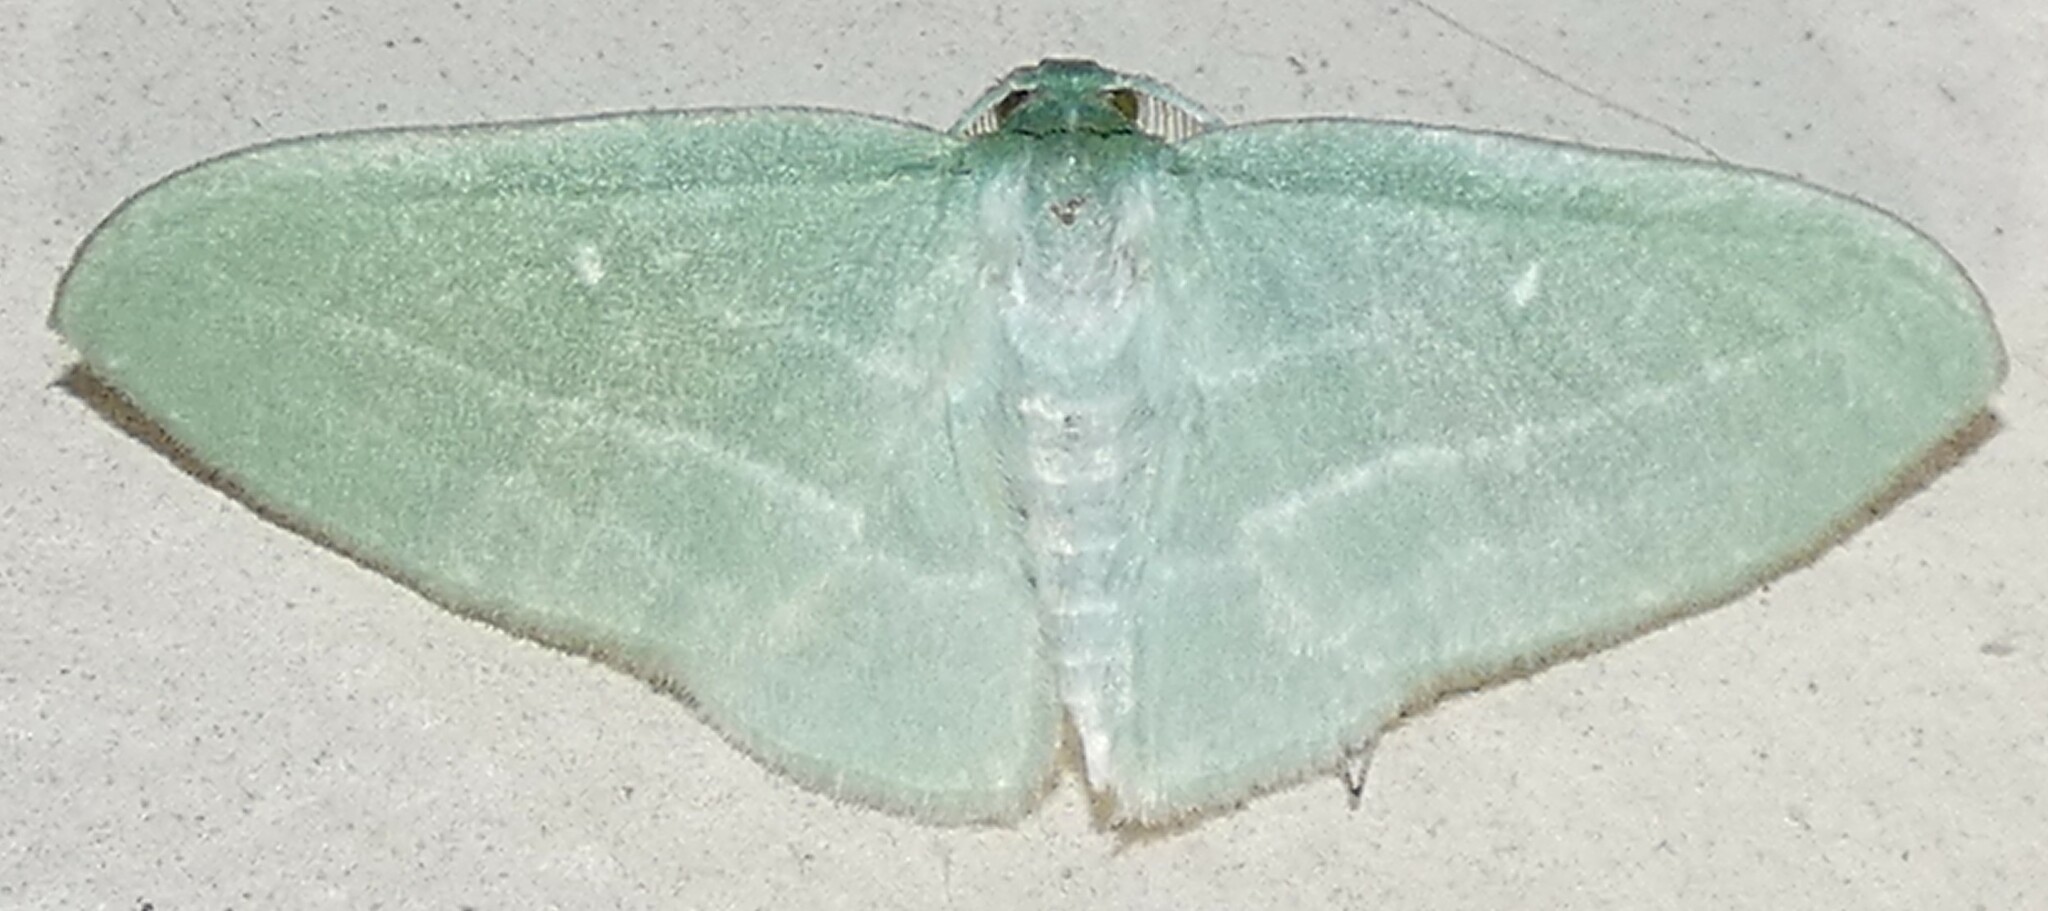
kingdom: Animalia
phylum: Arthropoda
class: Insecta
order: Lepidoptera
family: Geometridae
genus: Dyspteris
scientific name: Dyspteris abortivaria
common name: Bad-wing
